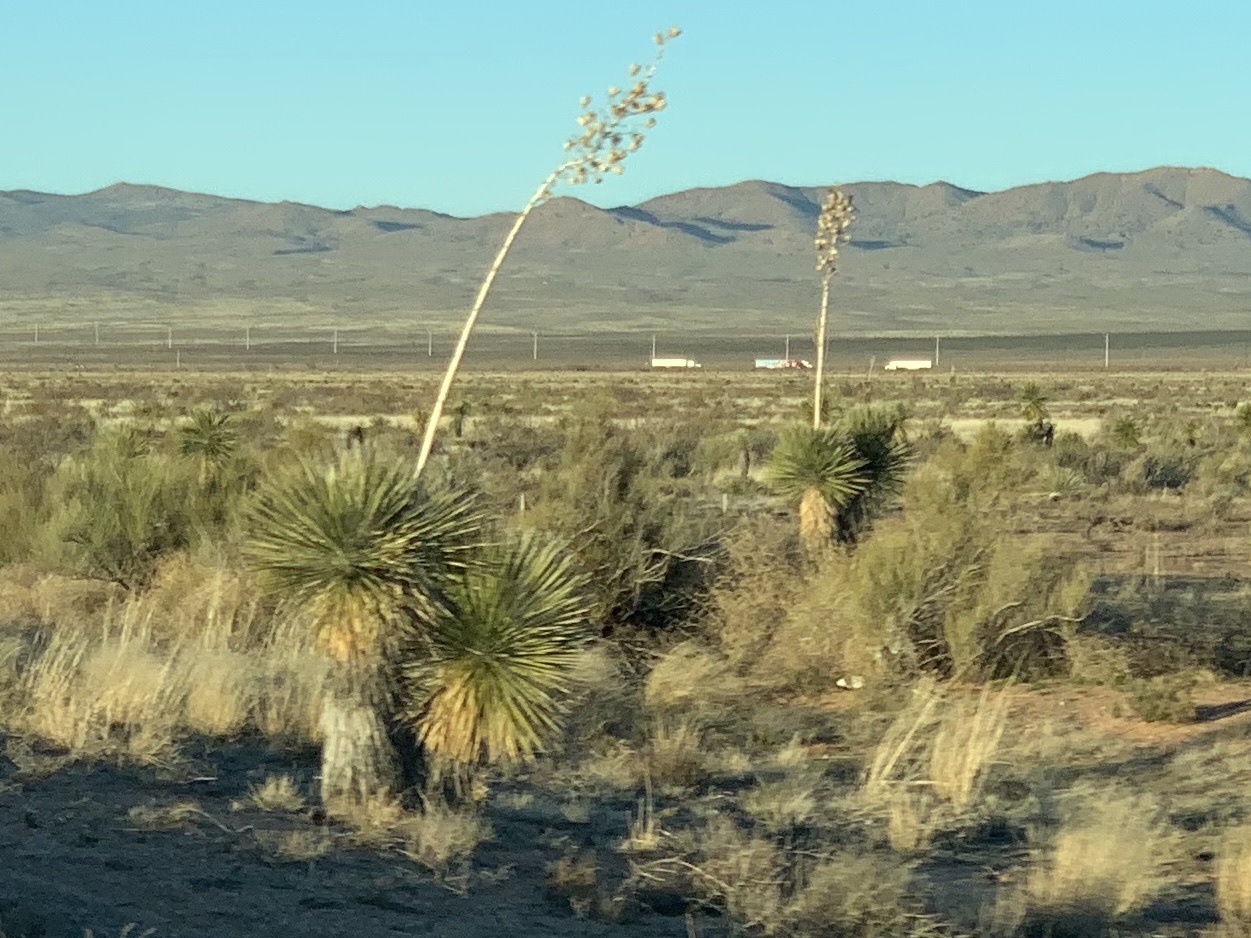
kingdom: Plantae
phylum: Tracheophyta
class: Liliopsida
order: Asparagales
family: Asparagaceae
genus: Yucca
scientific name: Yucca elata
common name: Palmella
